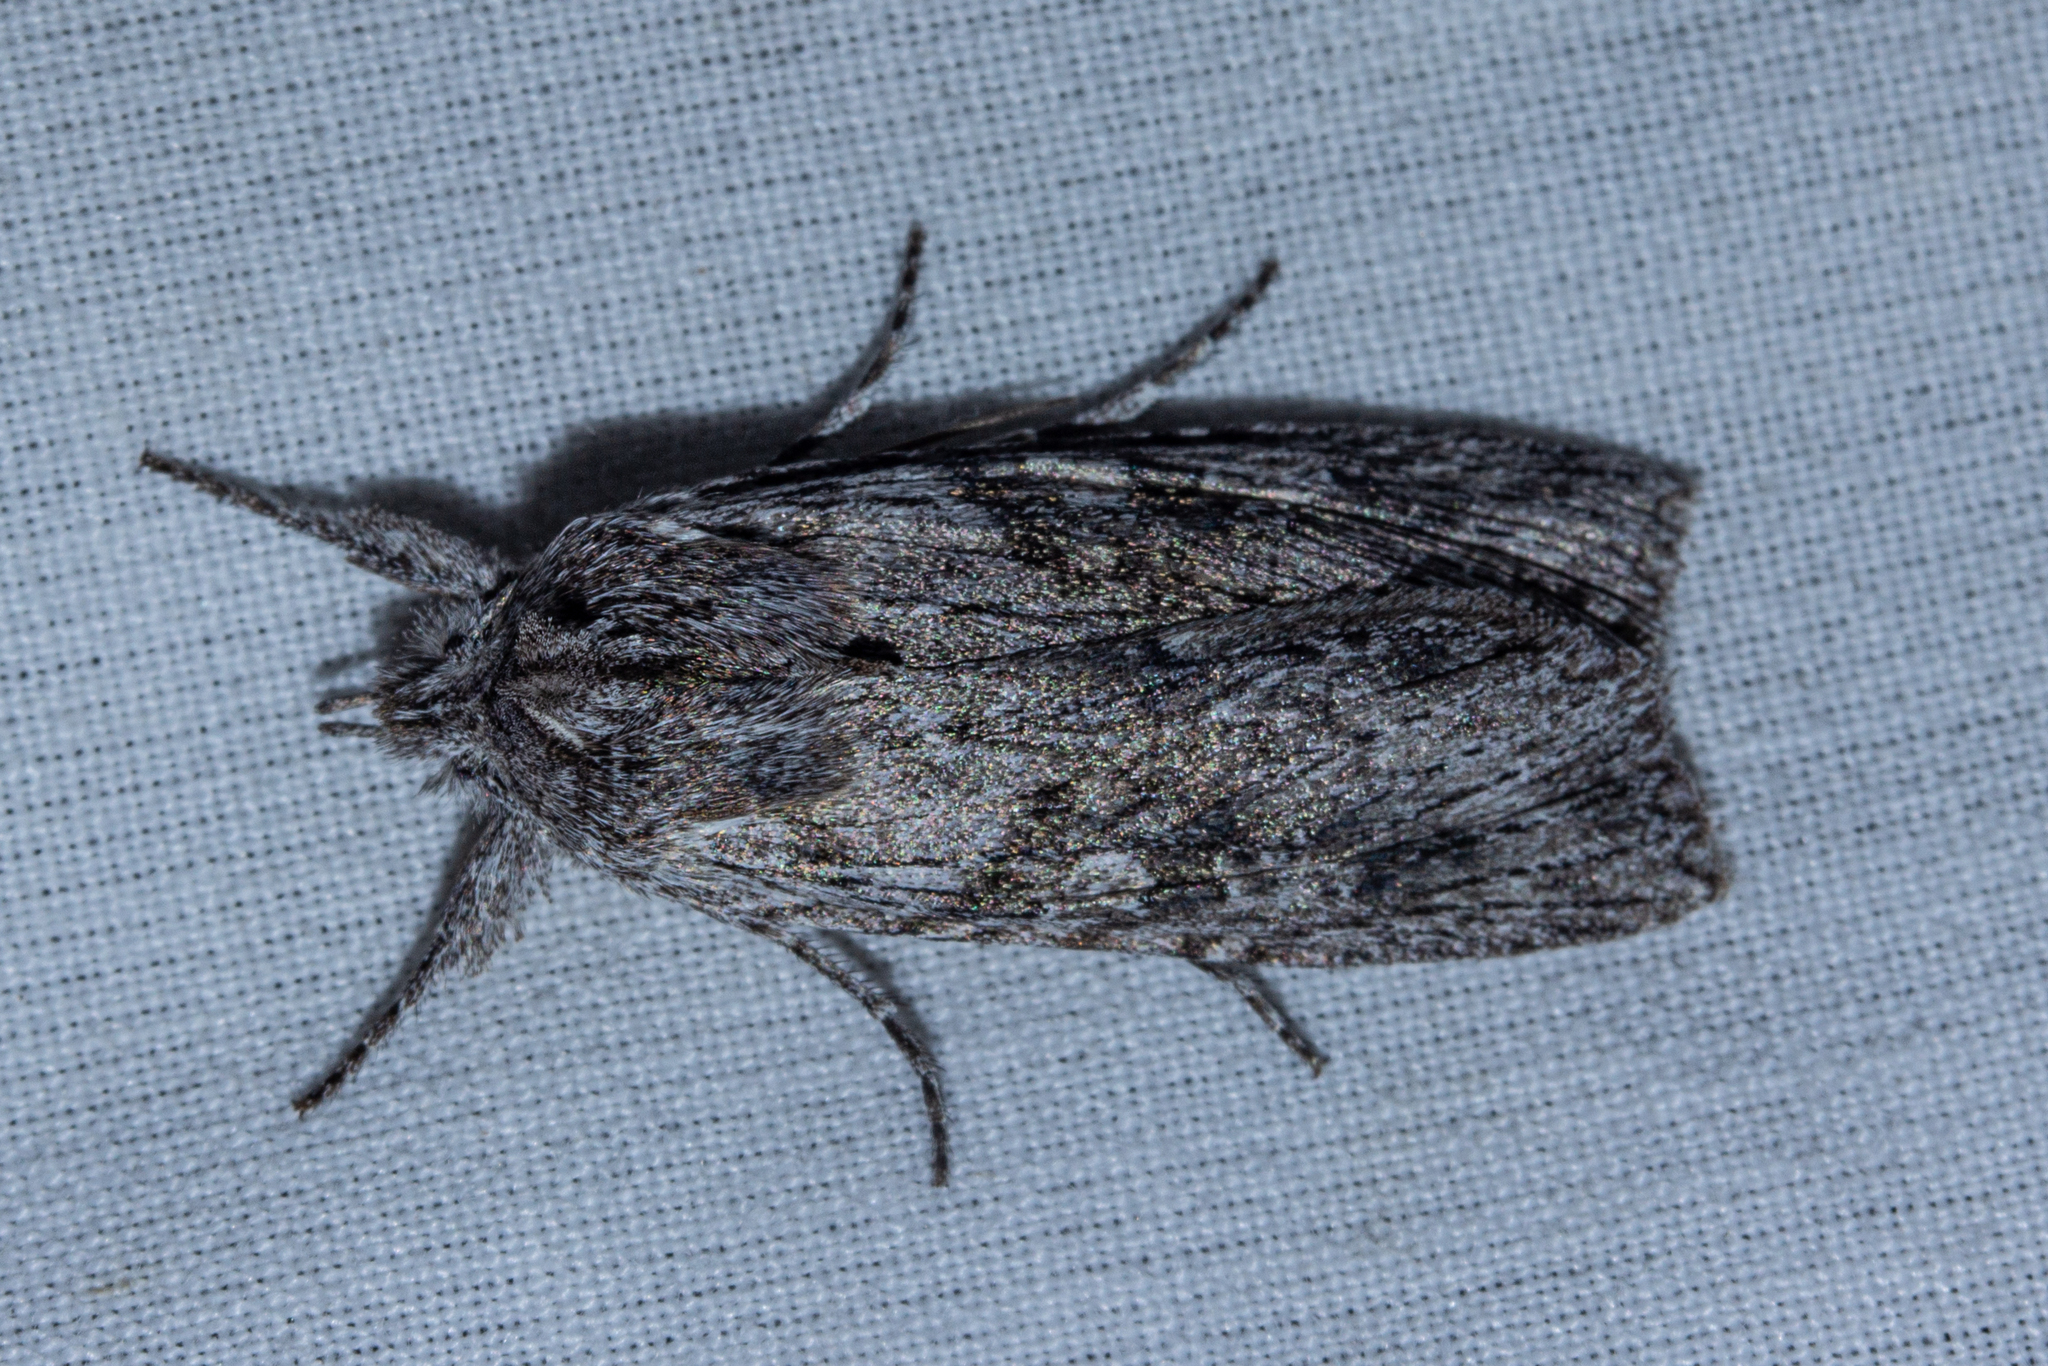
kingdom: Animalia
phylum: Arthropoda
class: Insecta
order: Lepidoptera
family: Noctuidae
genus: Physetica
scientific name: Physetica phricias
